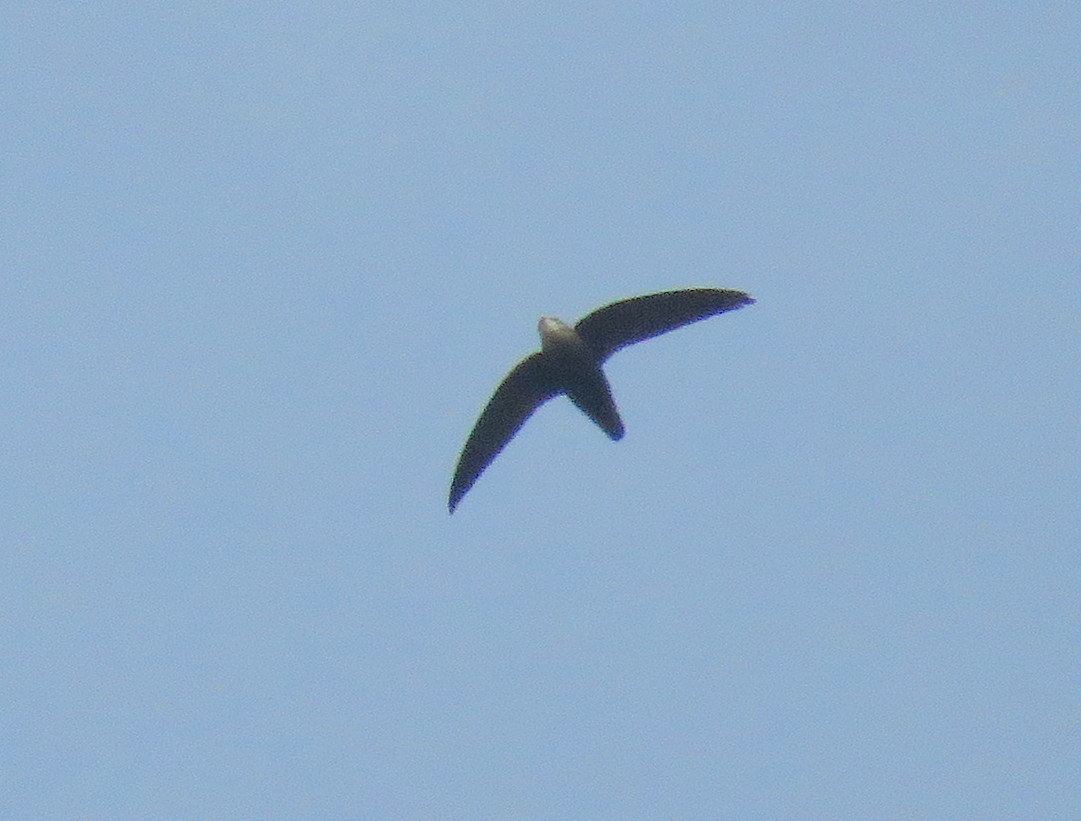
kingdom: Animalia
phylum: Chordata
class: Aves
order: Apodiformes
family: Apodidae
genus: Chaetura
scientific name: Chaetura meridionalis
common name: Sick's swift
